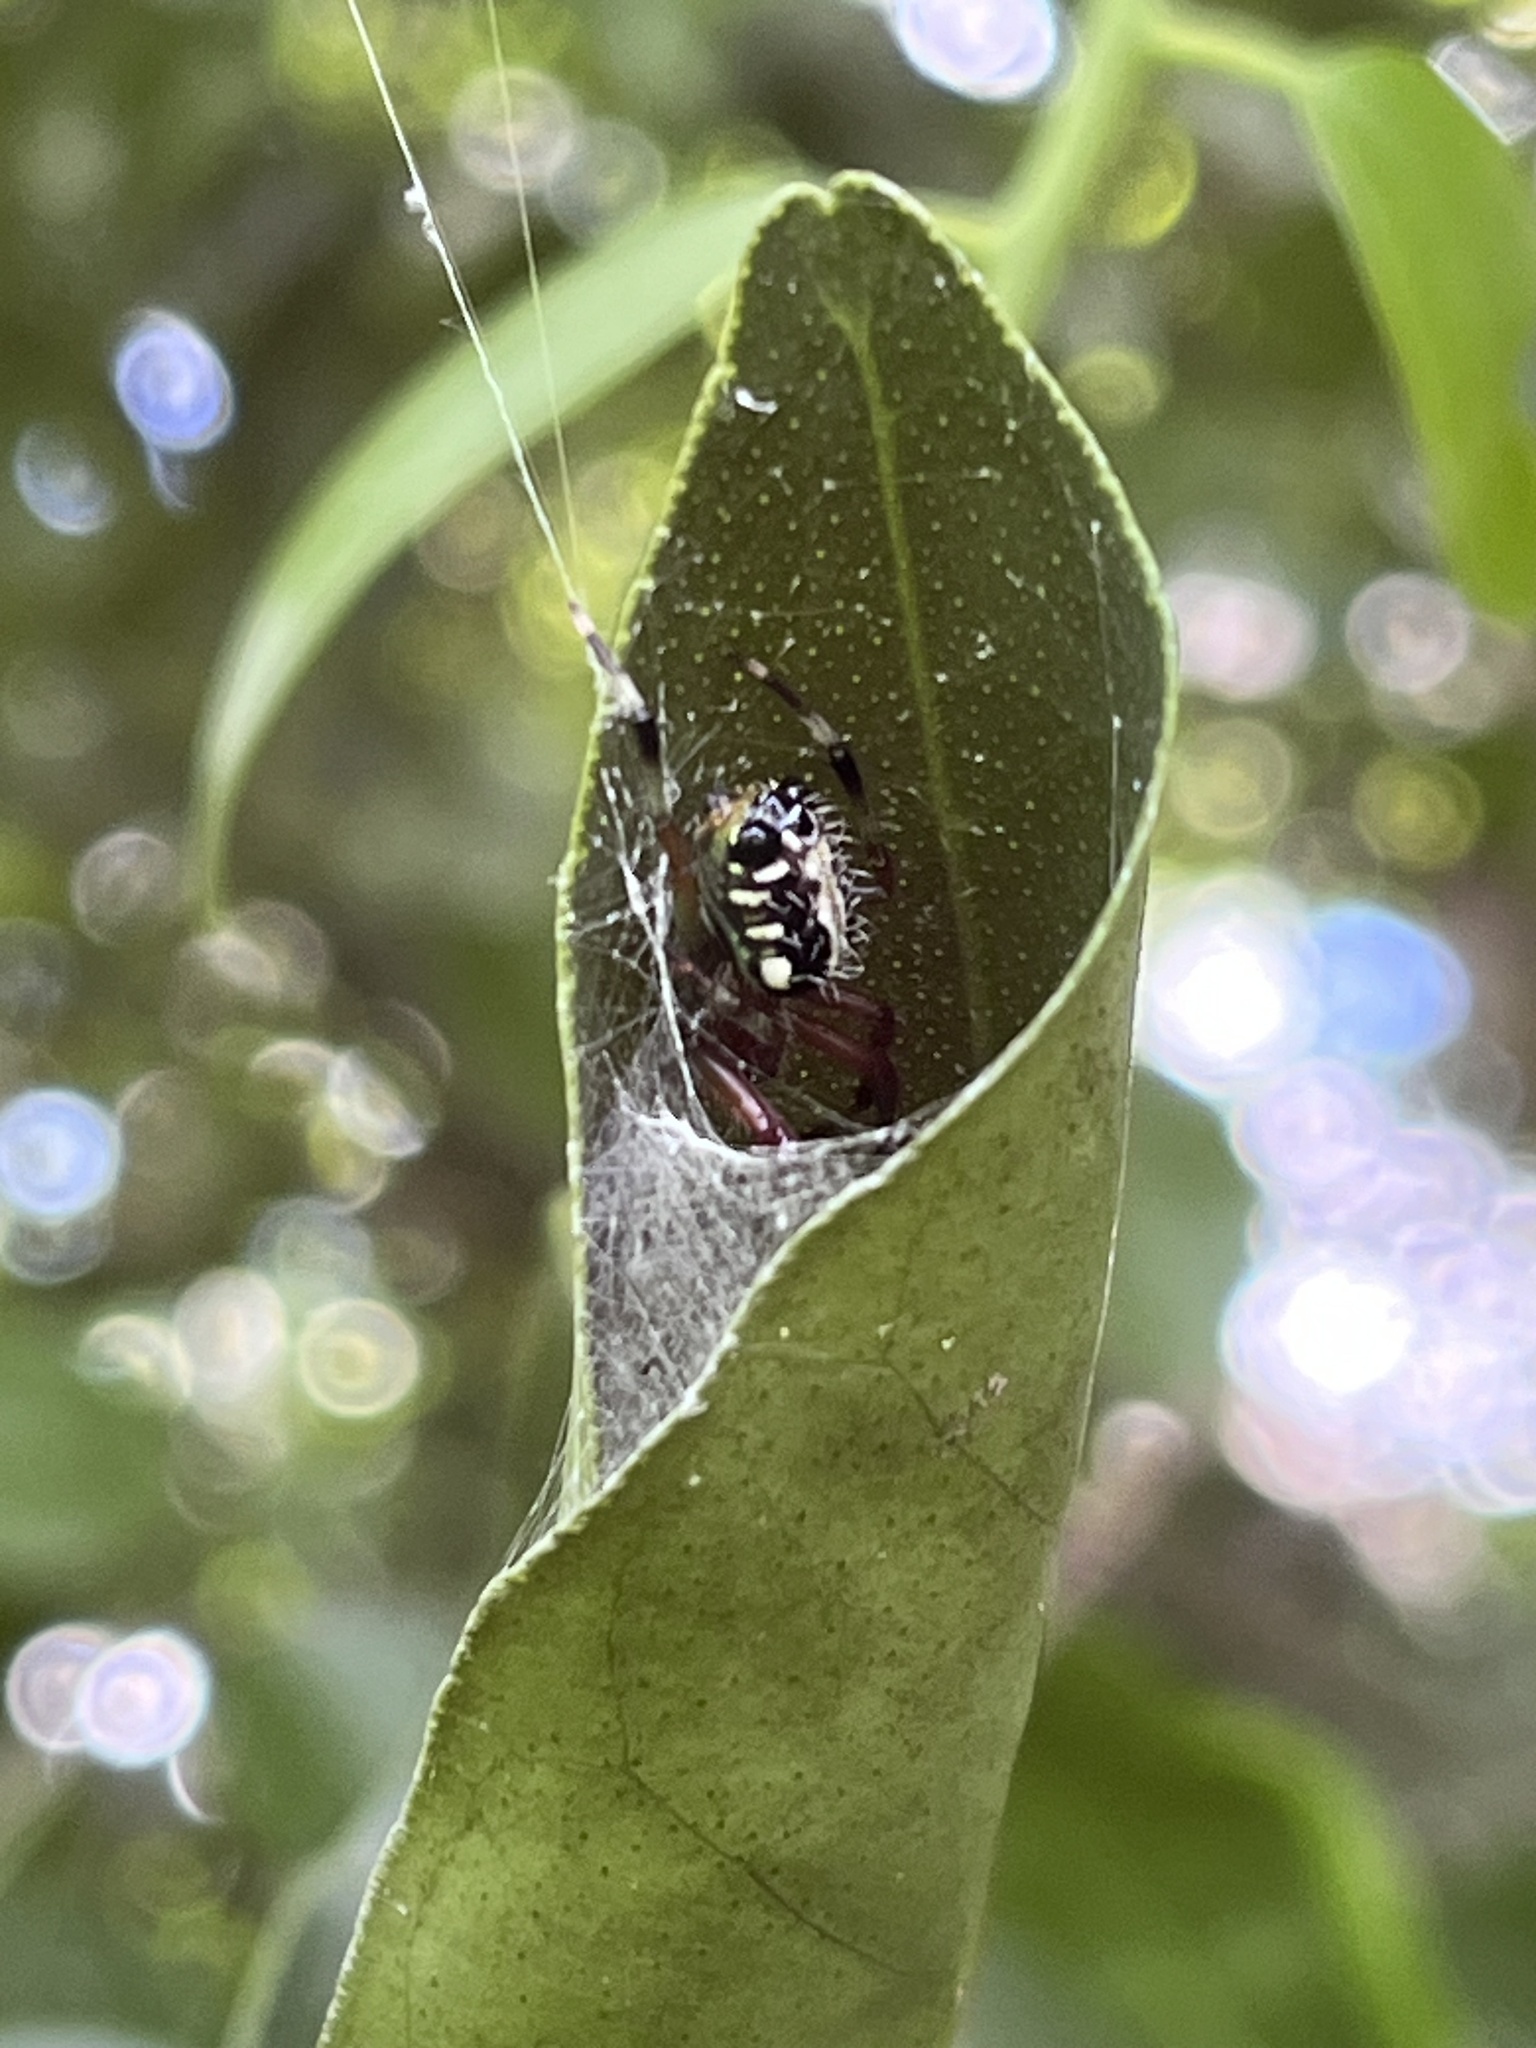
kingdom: Animalia
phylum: Arthropoda
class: Arachnida
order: Araneae
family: Araneidae
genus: Alpaida
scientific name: Alpaida truncata
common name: Orb weavers
